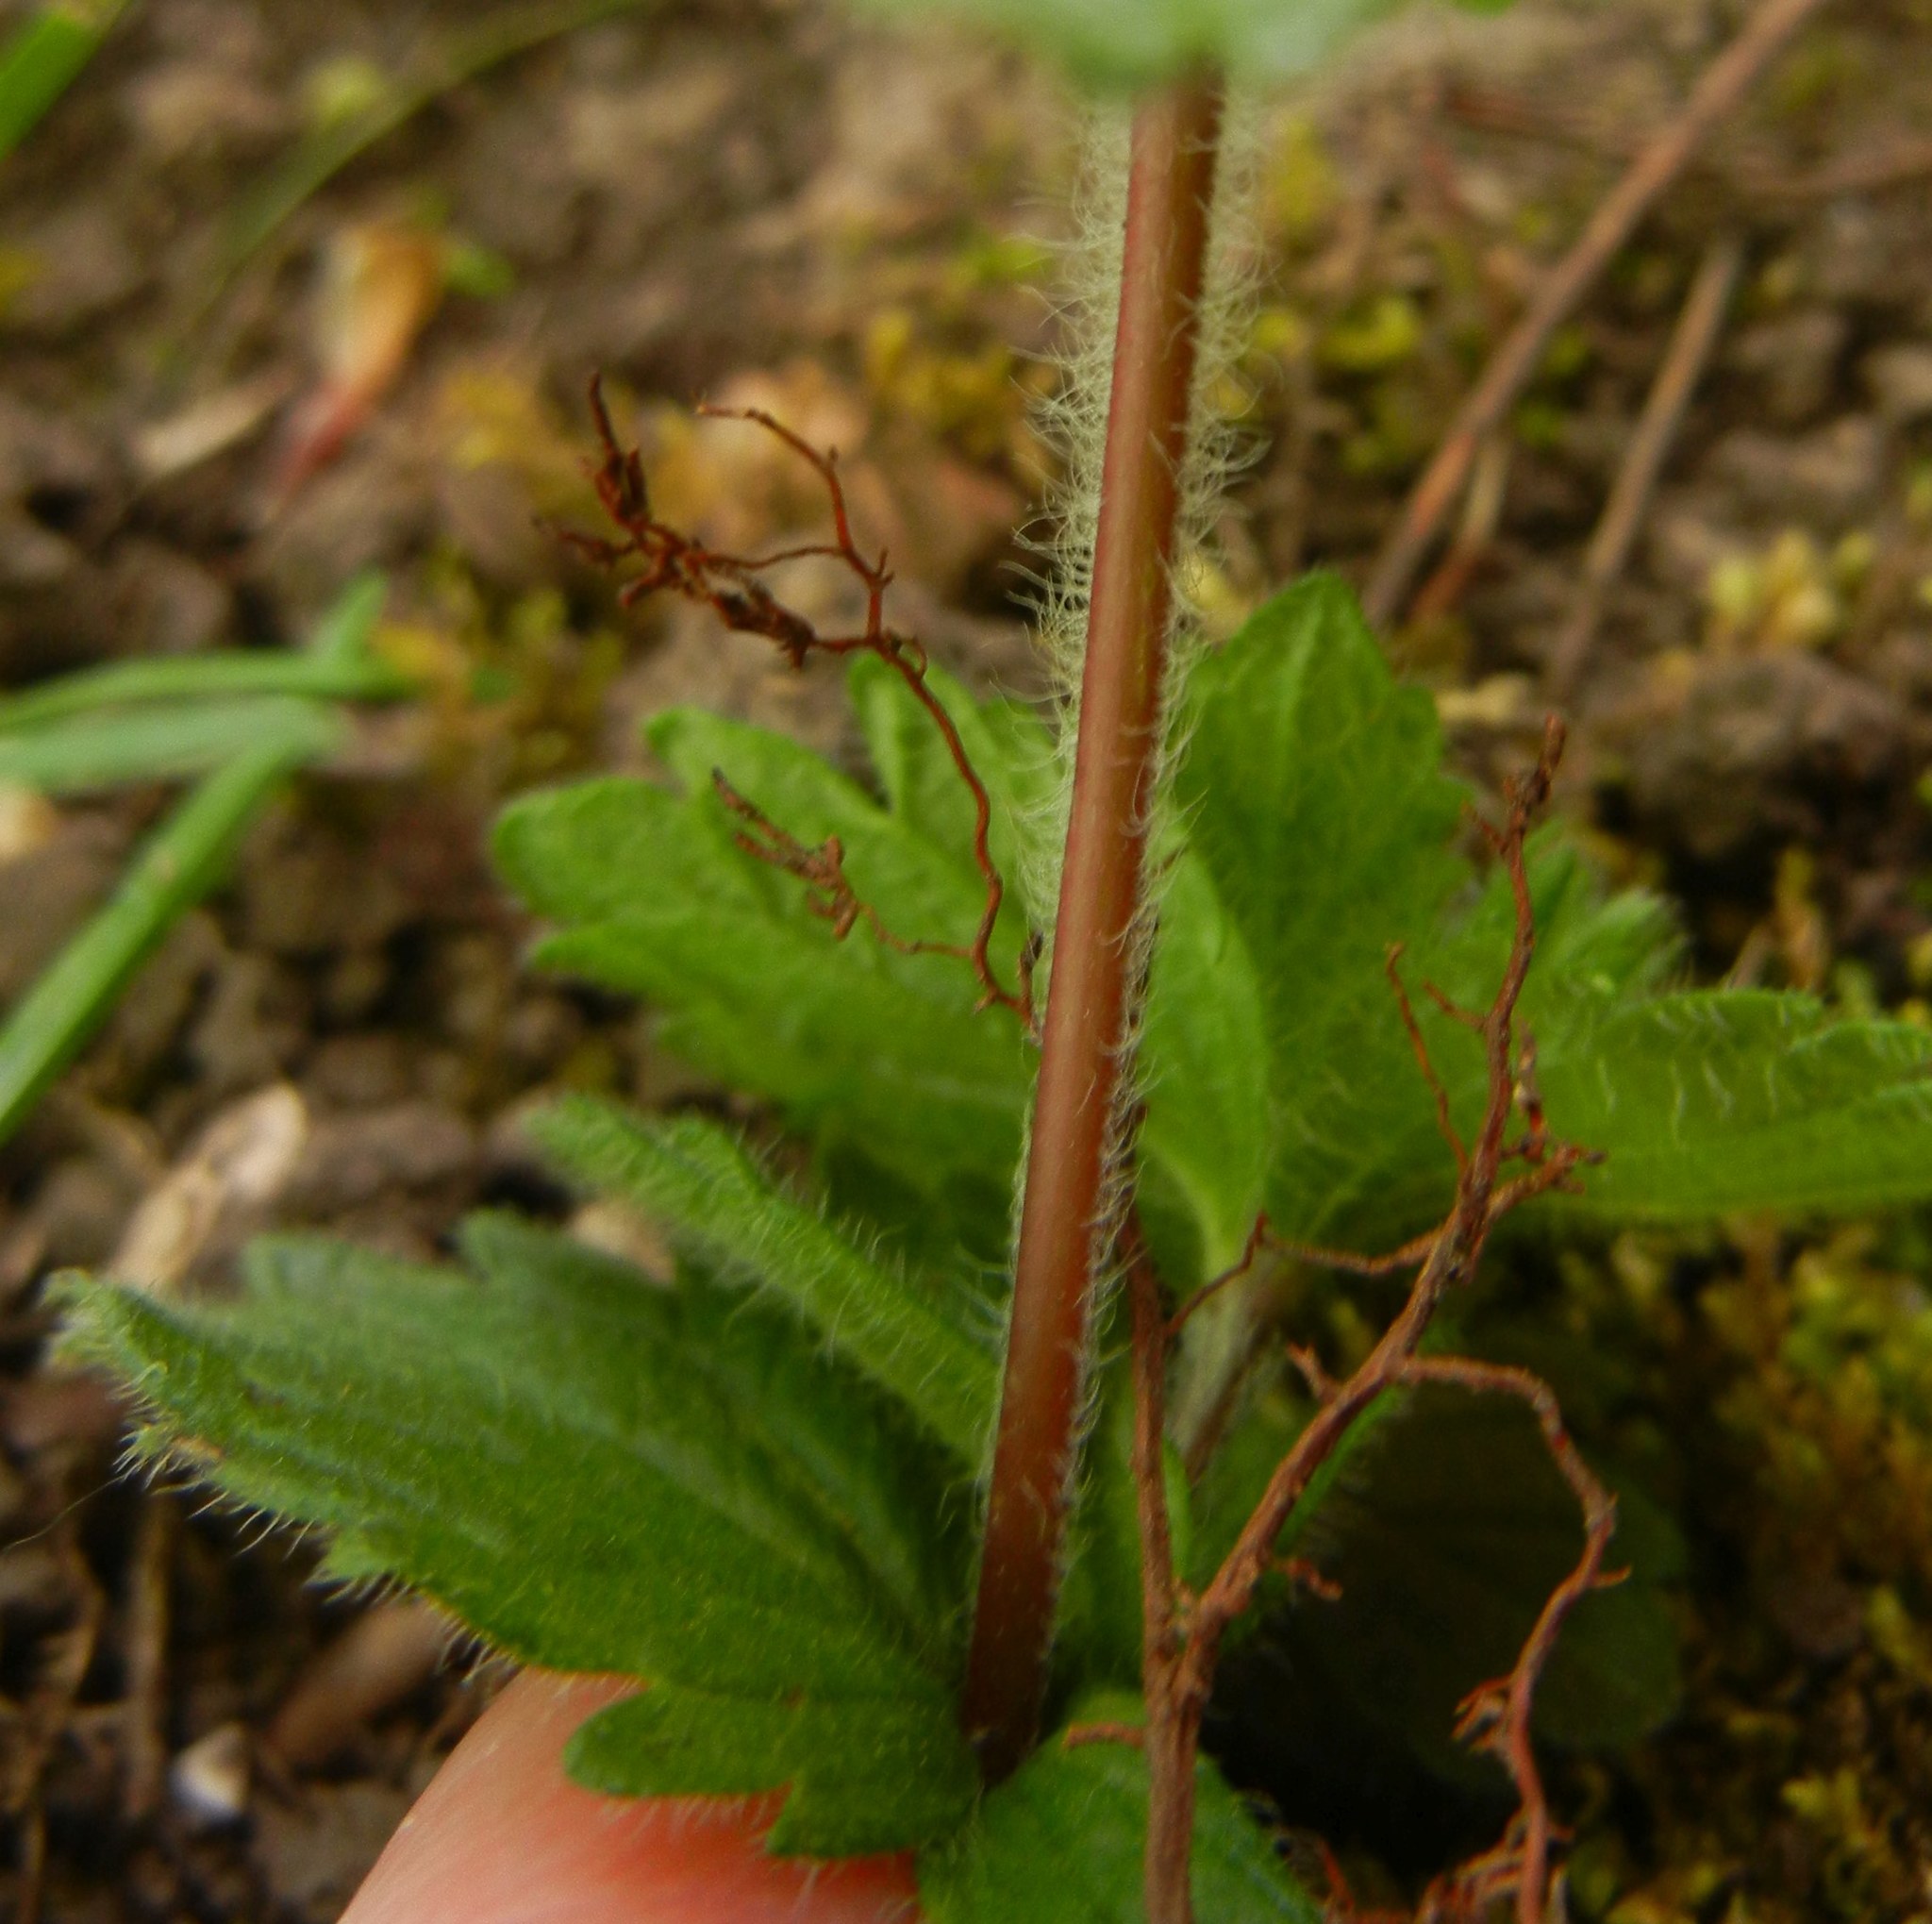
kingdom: Plantae
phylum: Tracheophyta
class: Magnoliopsida
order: Lamiales
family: Plantaginaceae
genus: Veronica
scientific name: Veronica chamaedrys
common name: Germander speedwell
